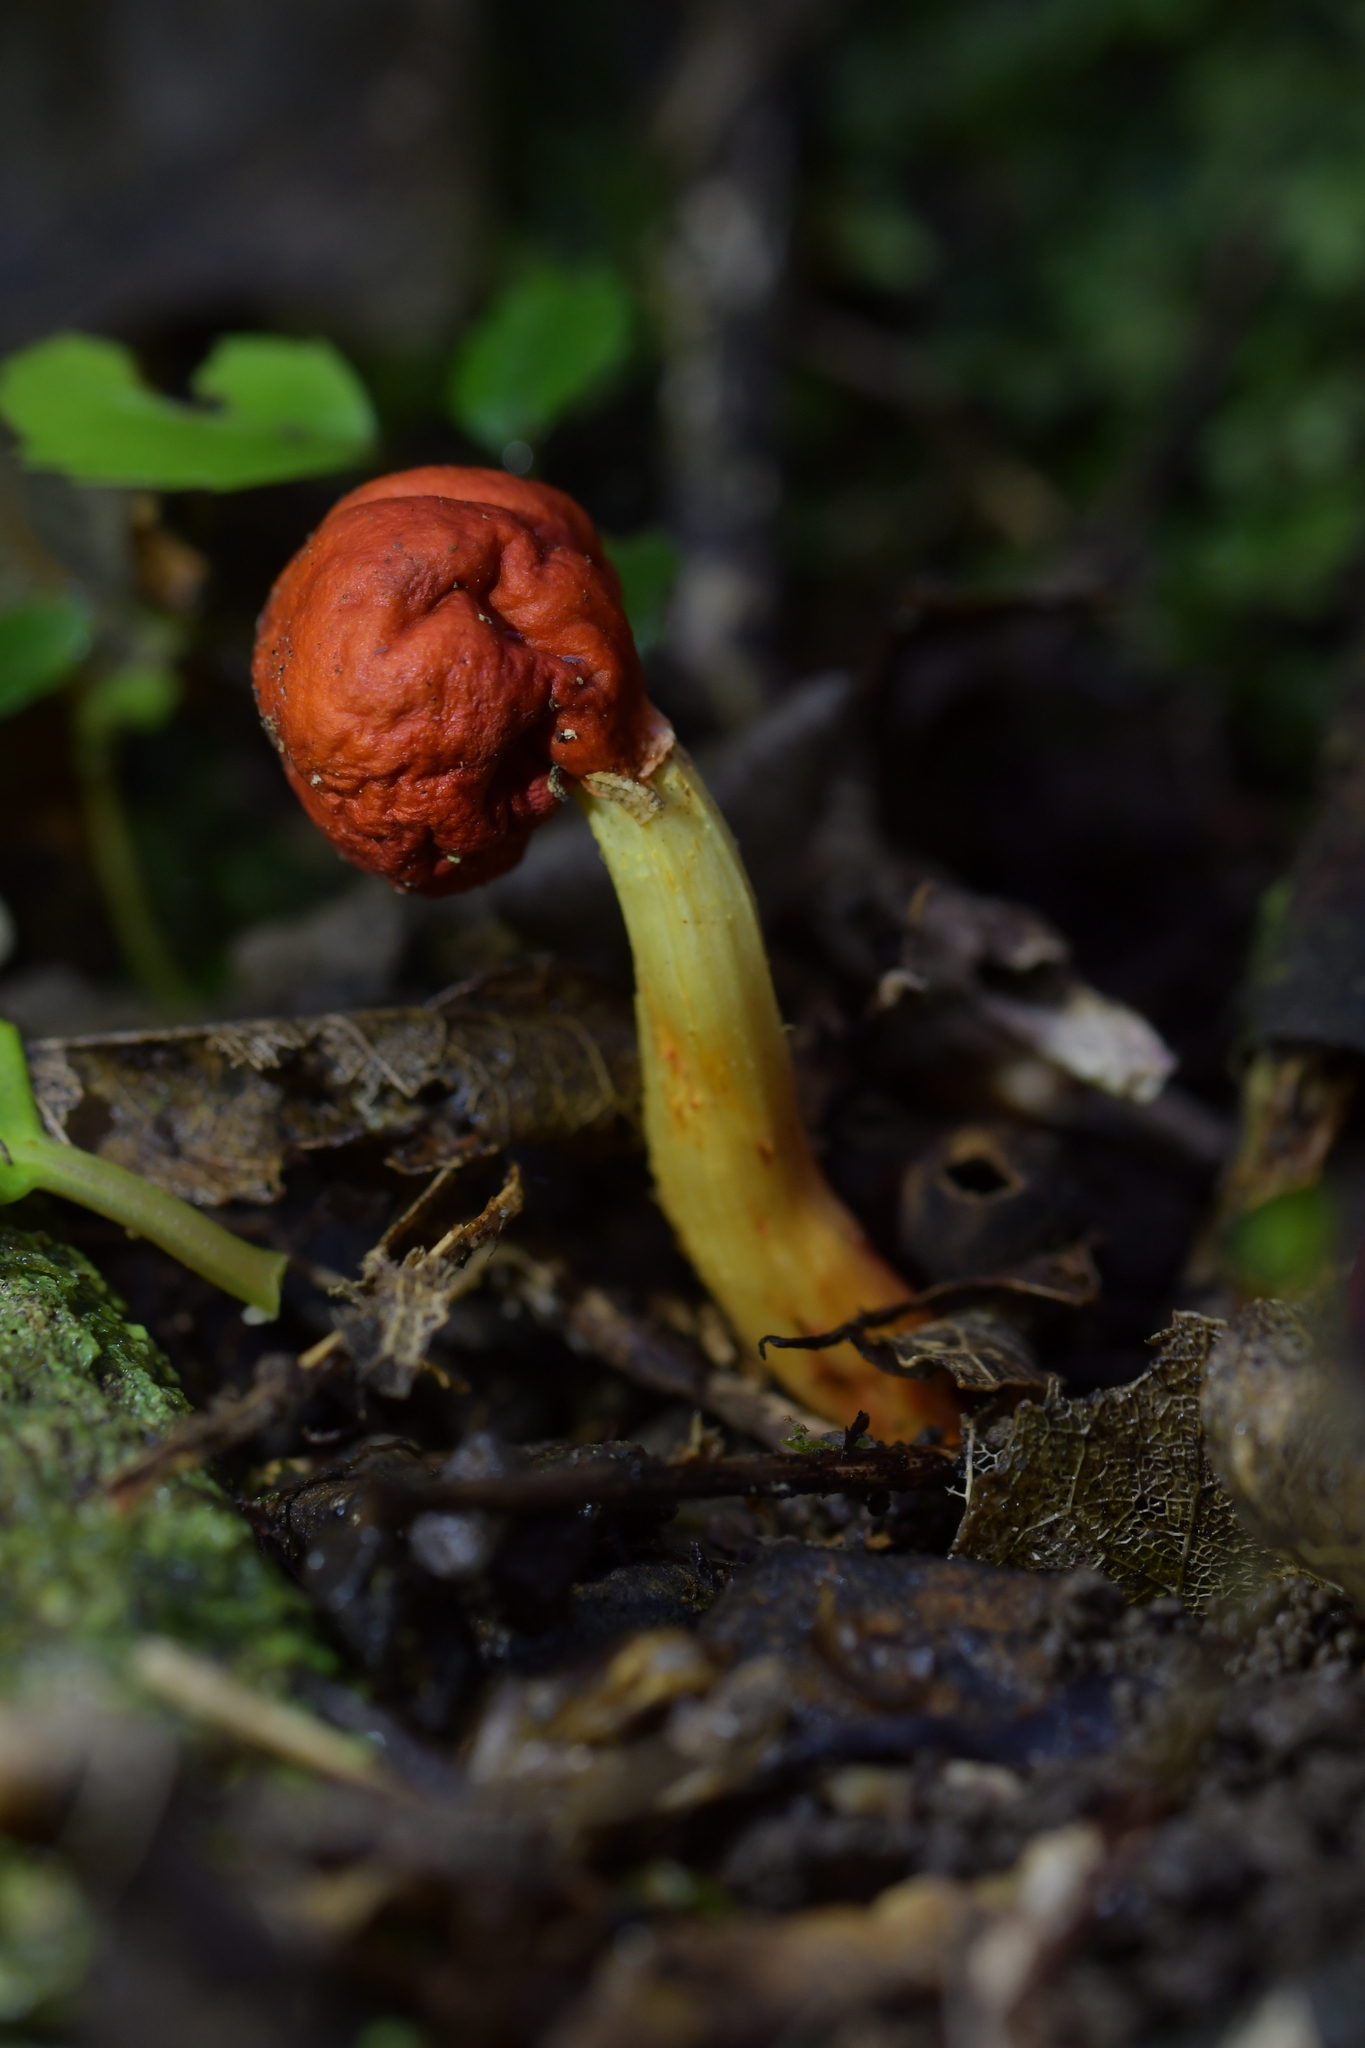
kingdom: Fungi
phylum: Basidiomycota
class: Agaricomycetes
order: Agaricales
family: Strophariaceae
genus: Leratiomyces
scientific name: Leratiomyces erythrocephalus
